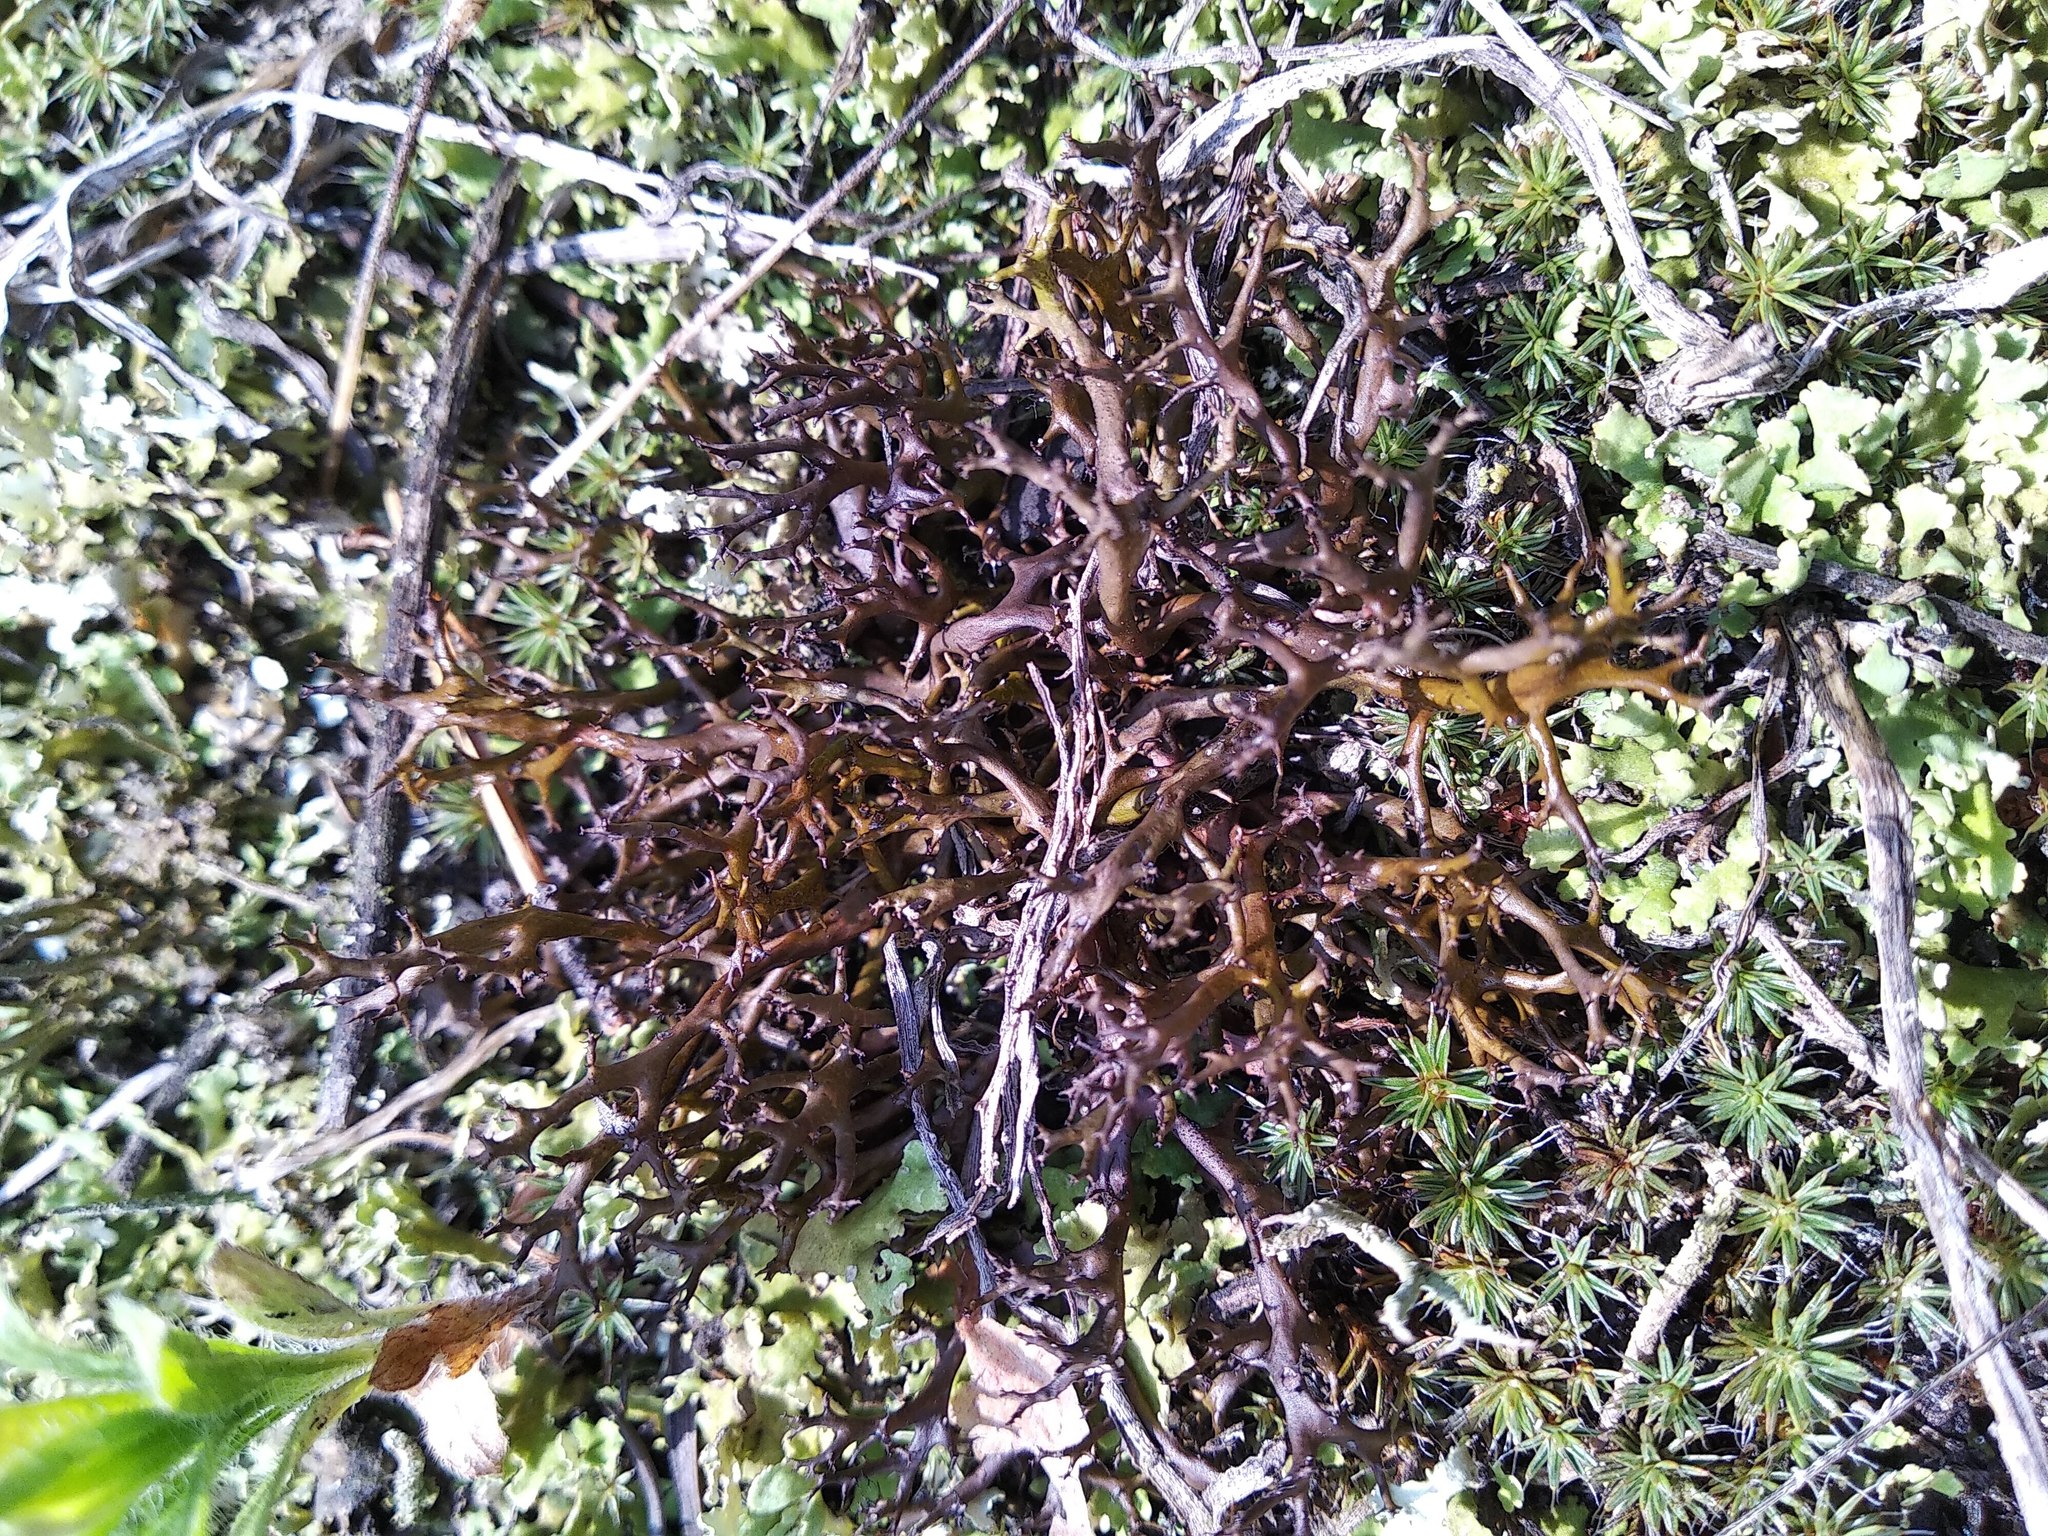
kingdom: Fungi
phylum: Ascomycota
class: Lecanoromycetes
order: Lecanorales
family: Parmeliaceae
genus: Cetraria
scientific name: Cetraria aculeata
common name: Spiny heath lichen
